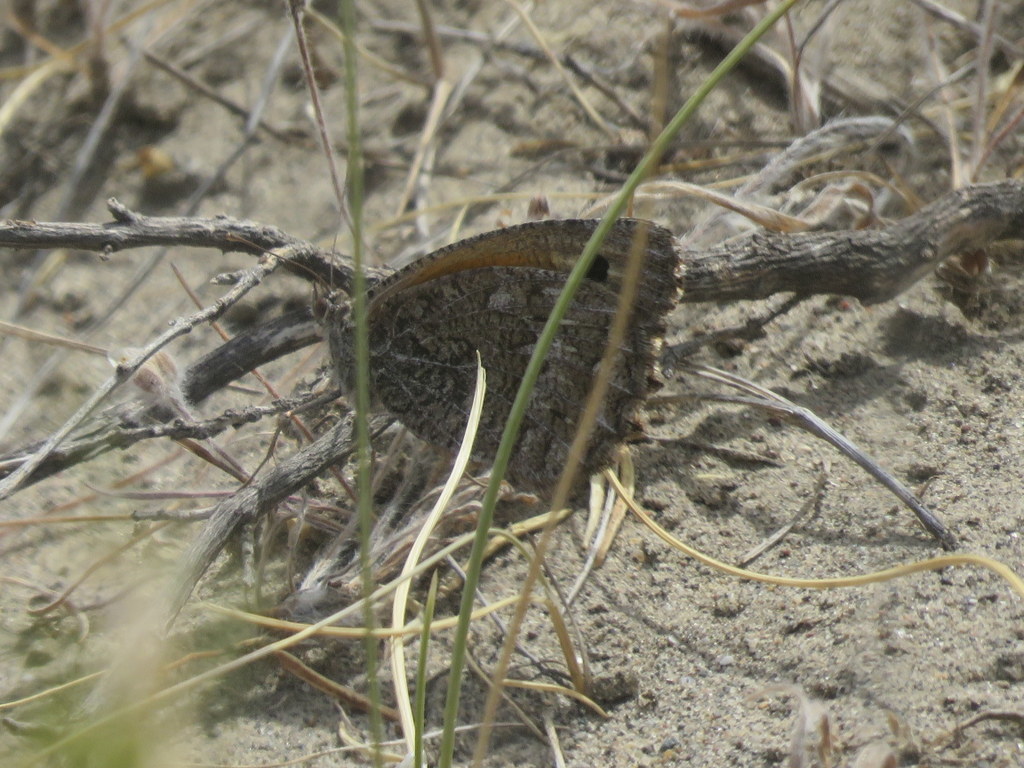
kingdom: Animalia
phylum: Arthropoda
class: Insecta
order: Lepidoptera
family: Nymphalidae
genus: Argyrophorus
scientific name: Argyrophorus
